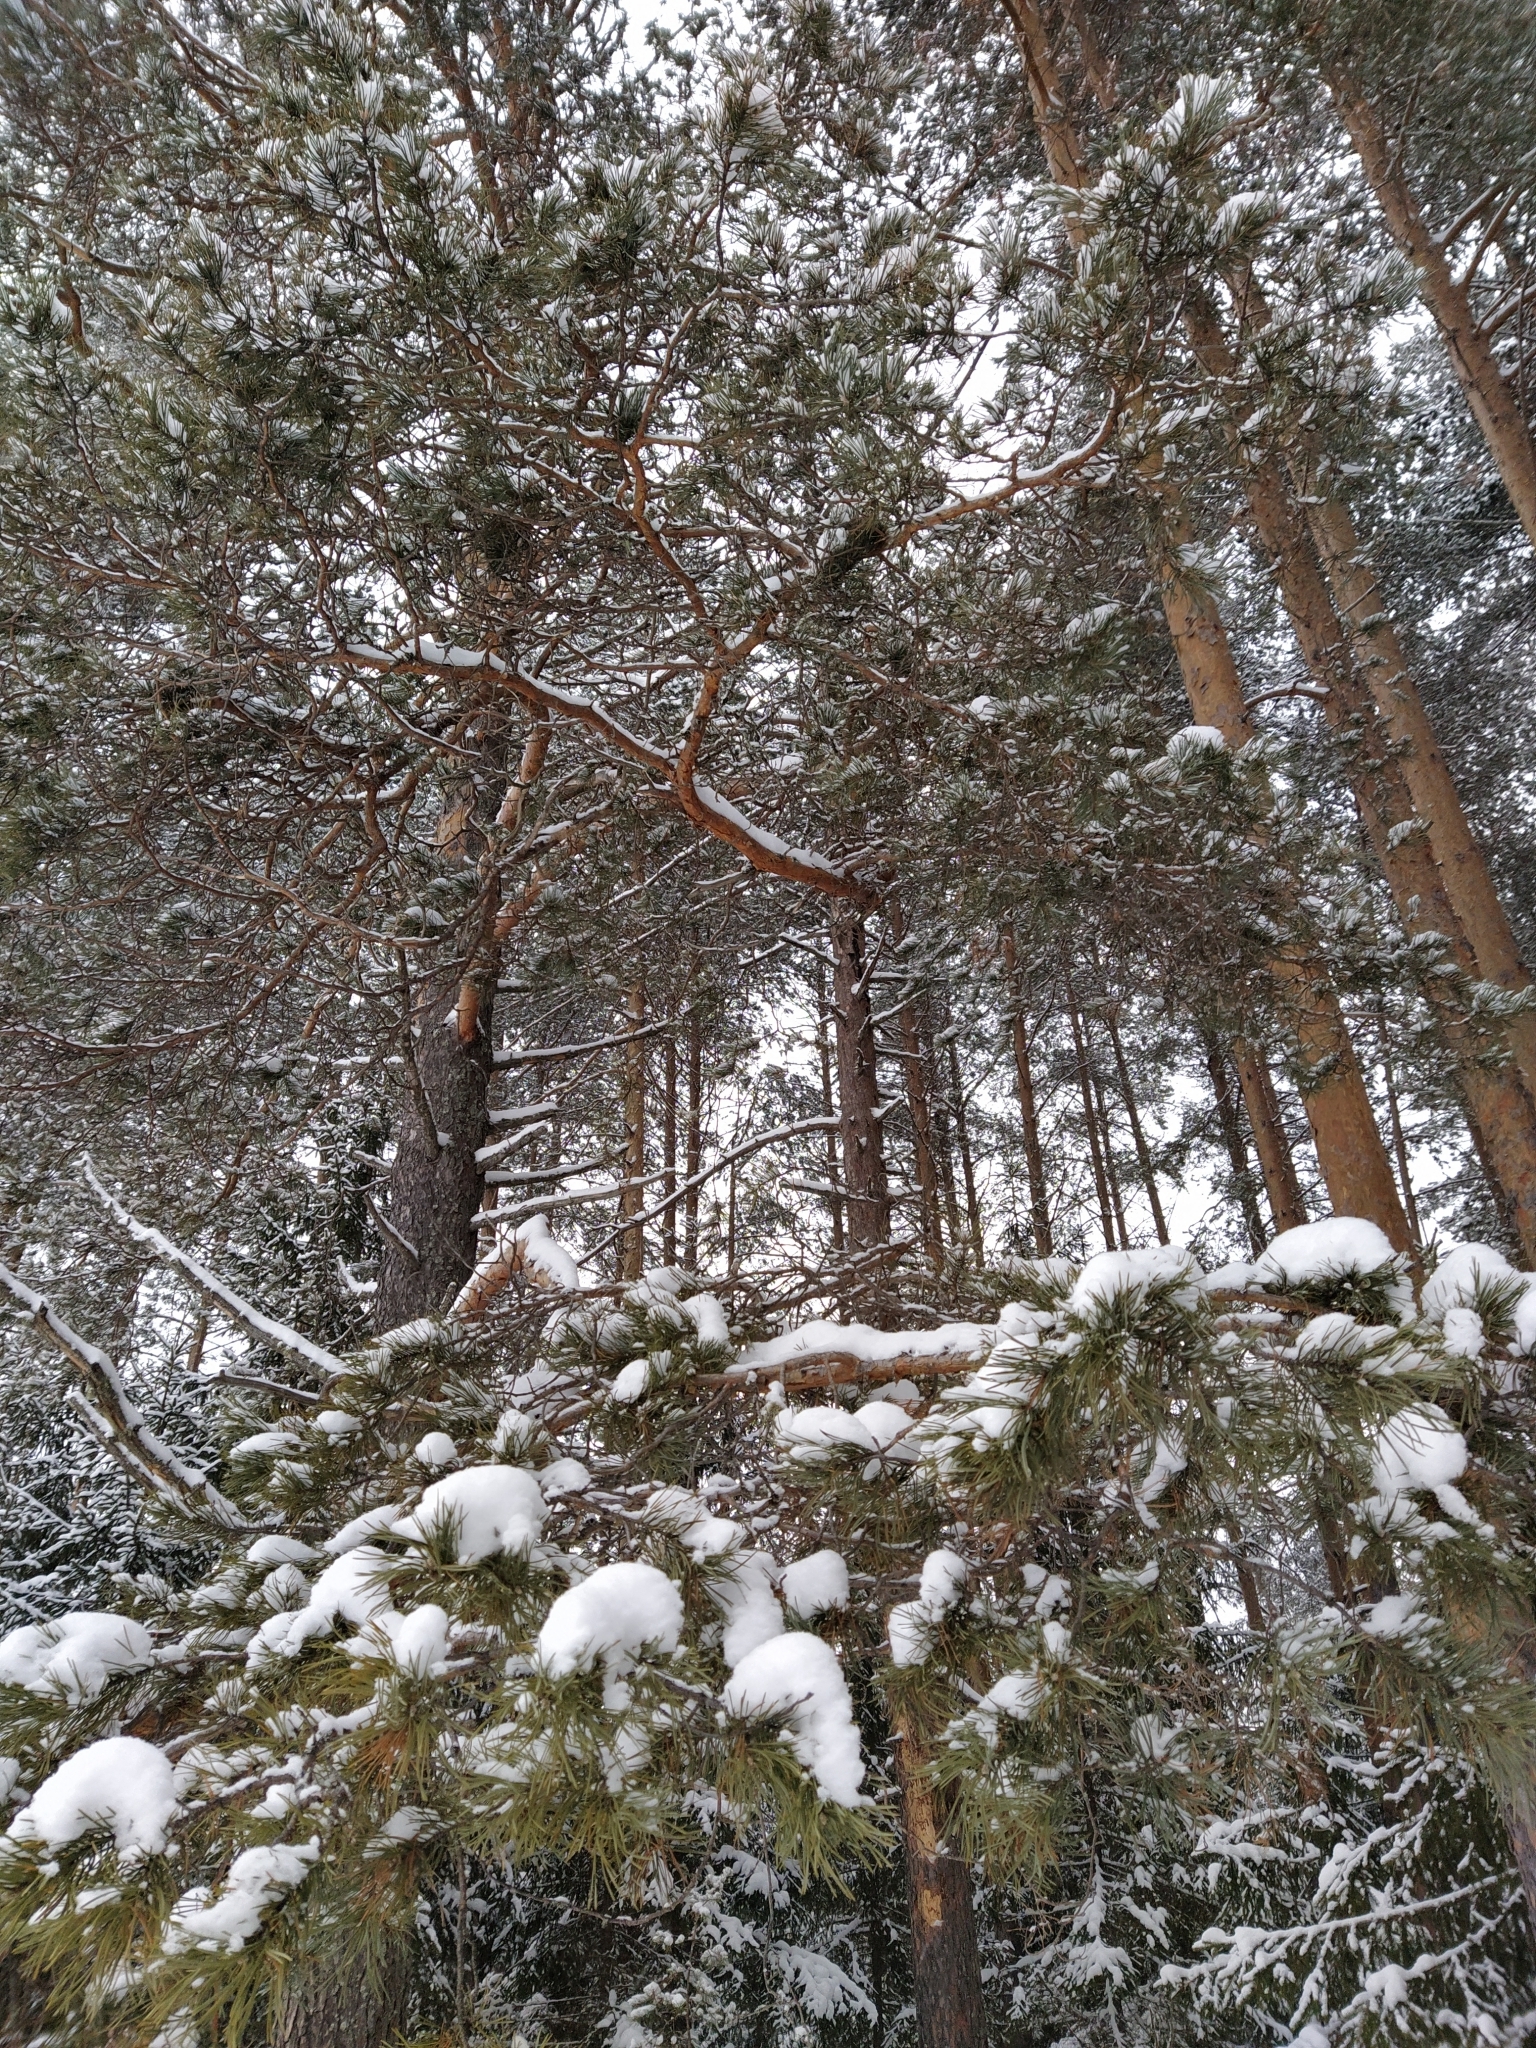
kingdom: Plantae
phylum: Tracheophyta
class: Pinopsida
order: Pinales
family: Pinaceae
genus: Pinus
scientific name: Pinus sylvestris
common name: Scots pine
